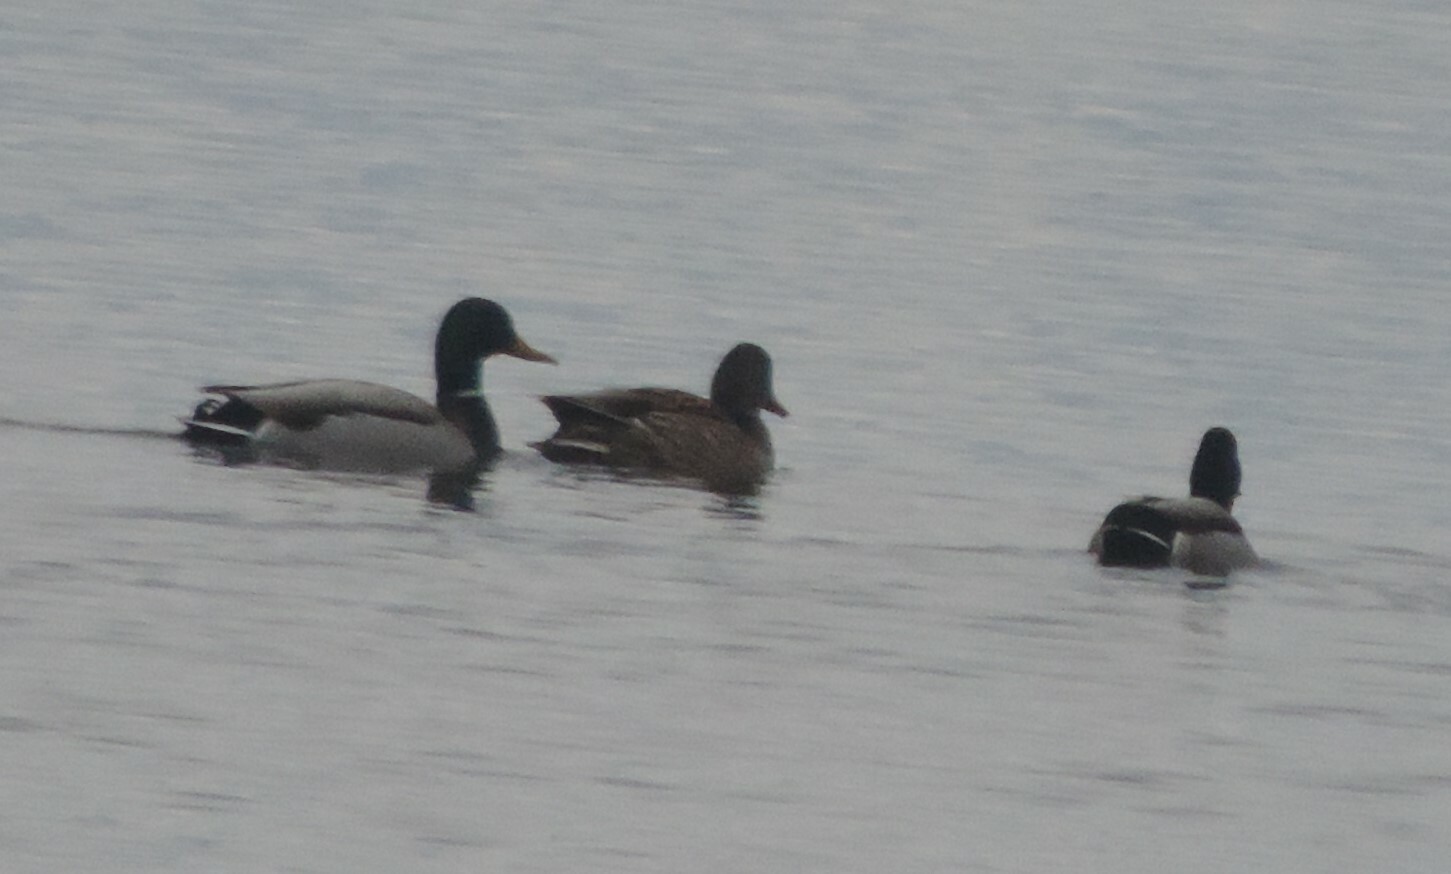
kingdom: Animalia
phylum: Chordata
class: Aves
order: Anseriformes
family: Anatidae
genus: Anas
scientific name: Anas platyrhynchos
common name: Mallard
